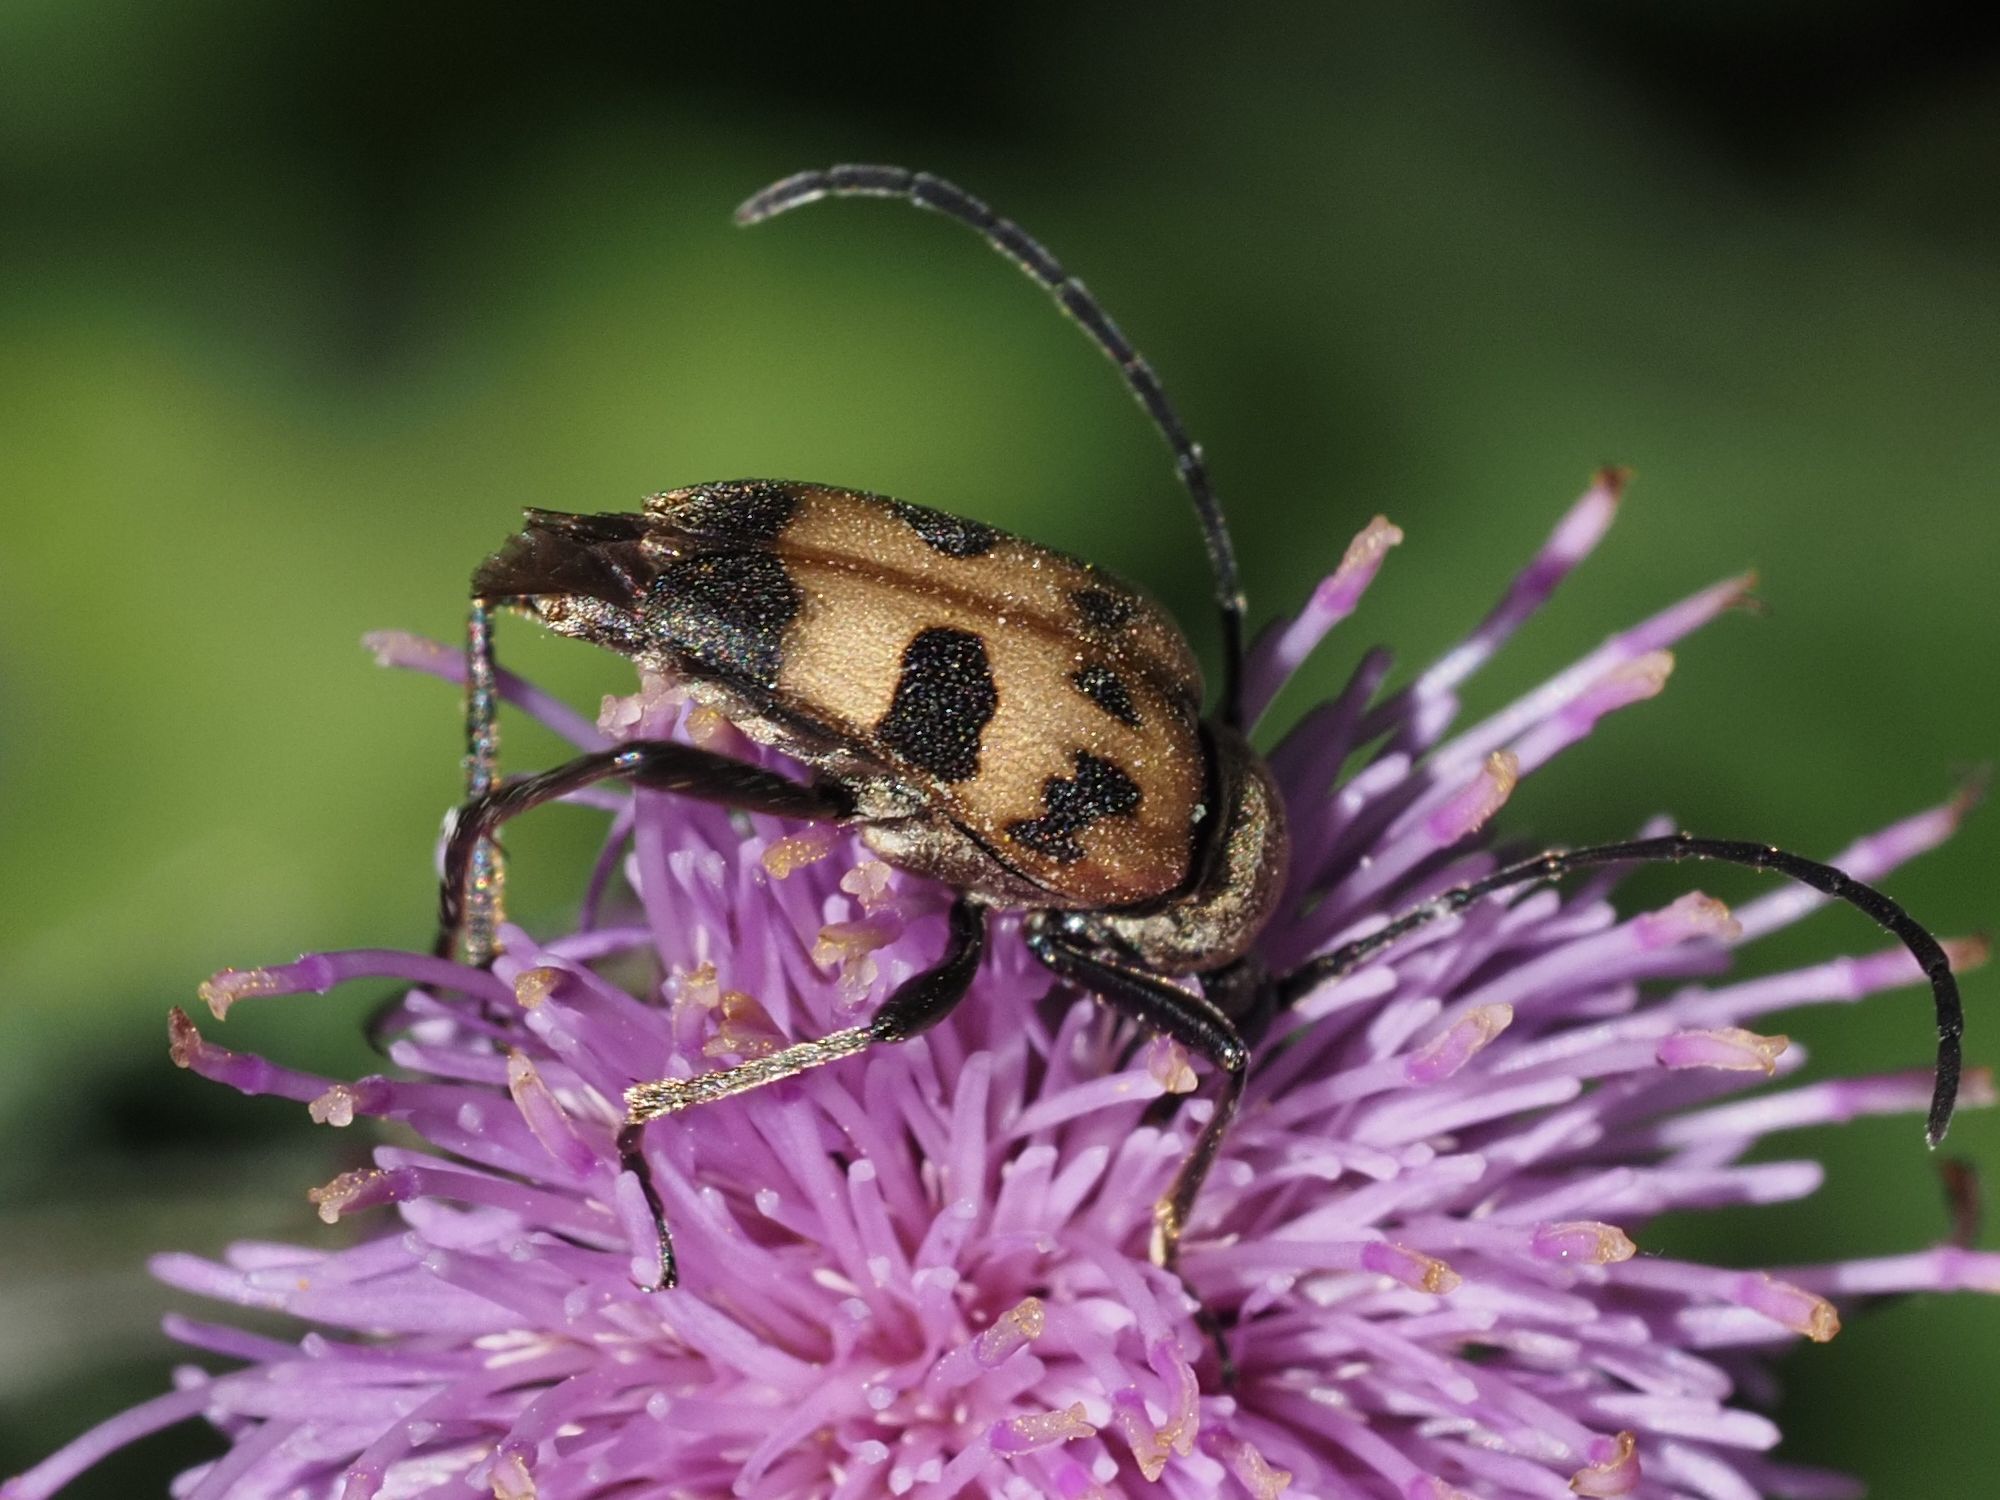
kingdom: Animalia
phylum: Arthropoda
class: Insecta
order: Coleoptera
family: Cerambycidae
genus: Pachytodes
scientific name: Pachytodes cerambyciformis
